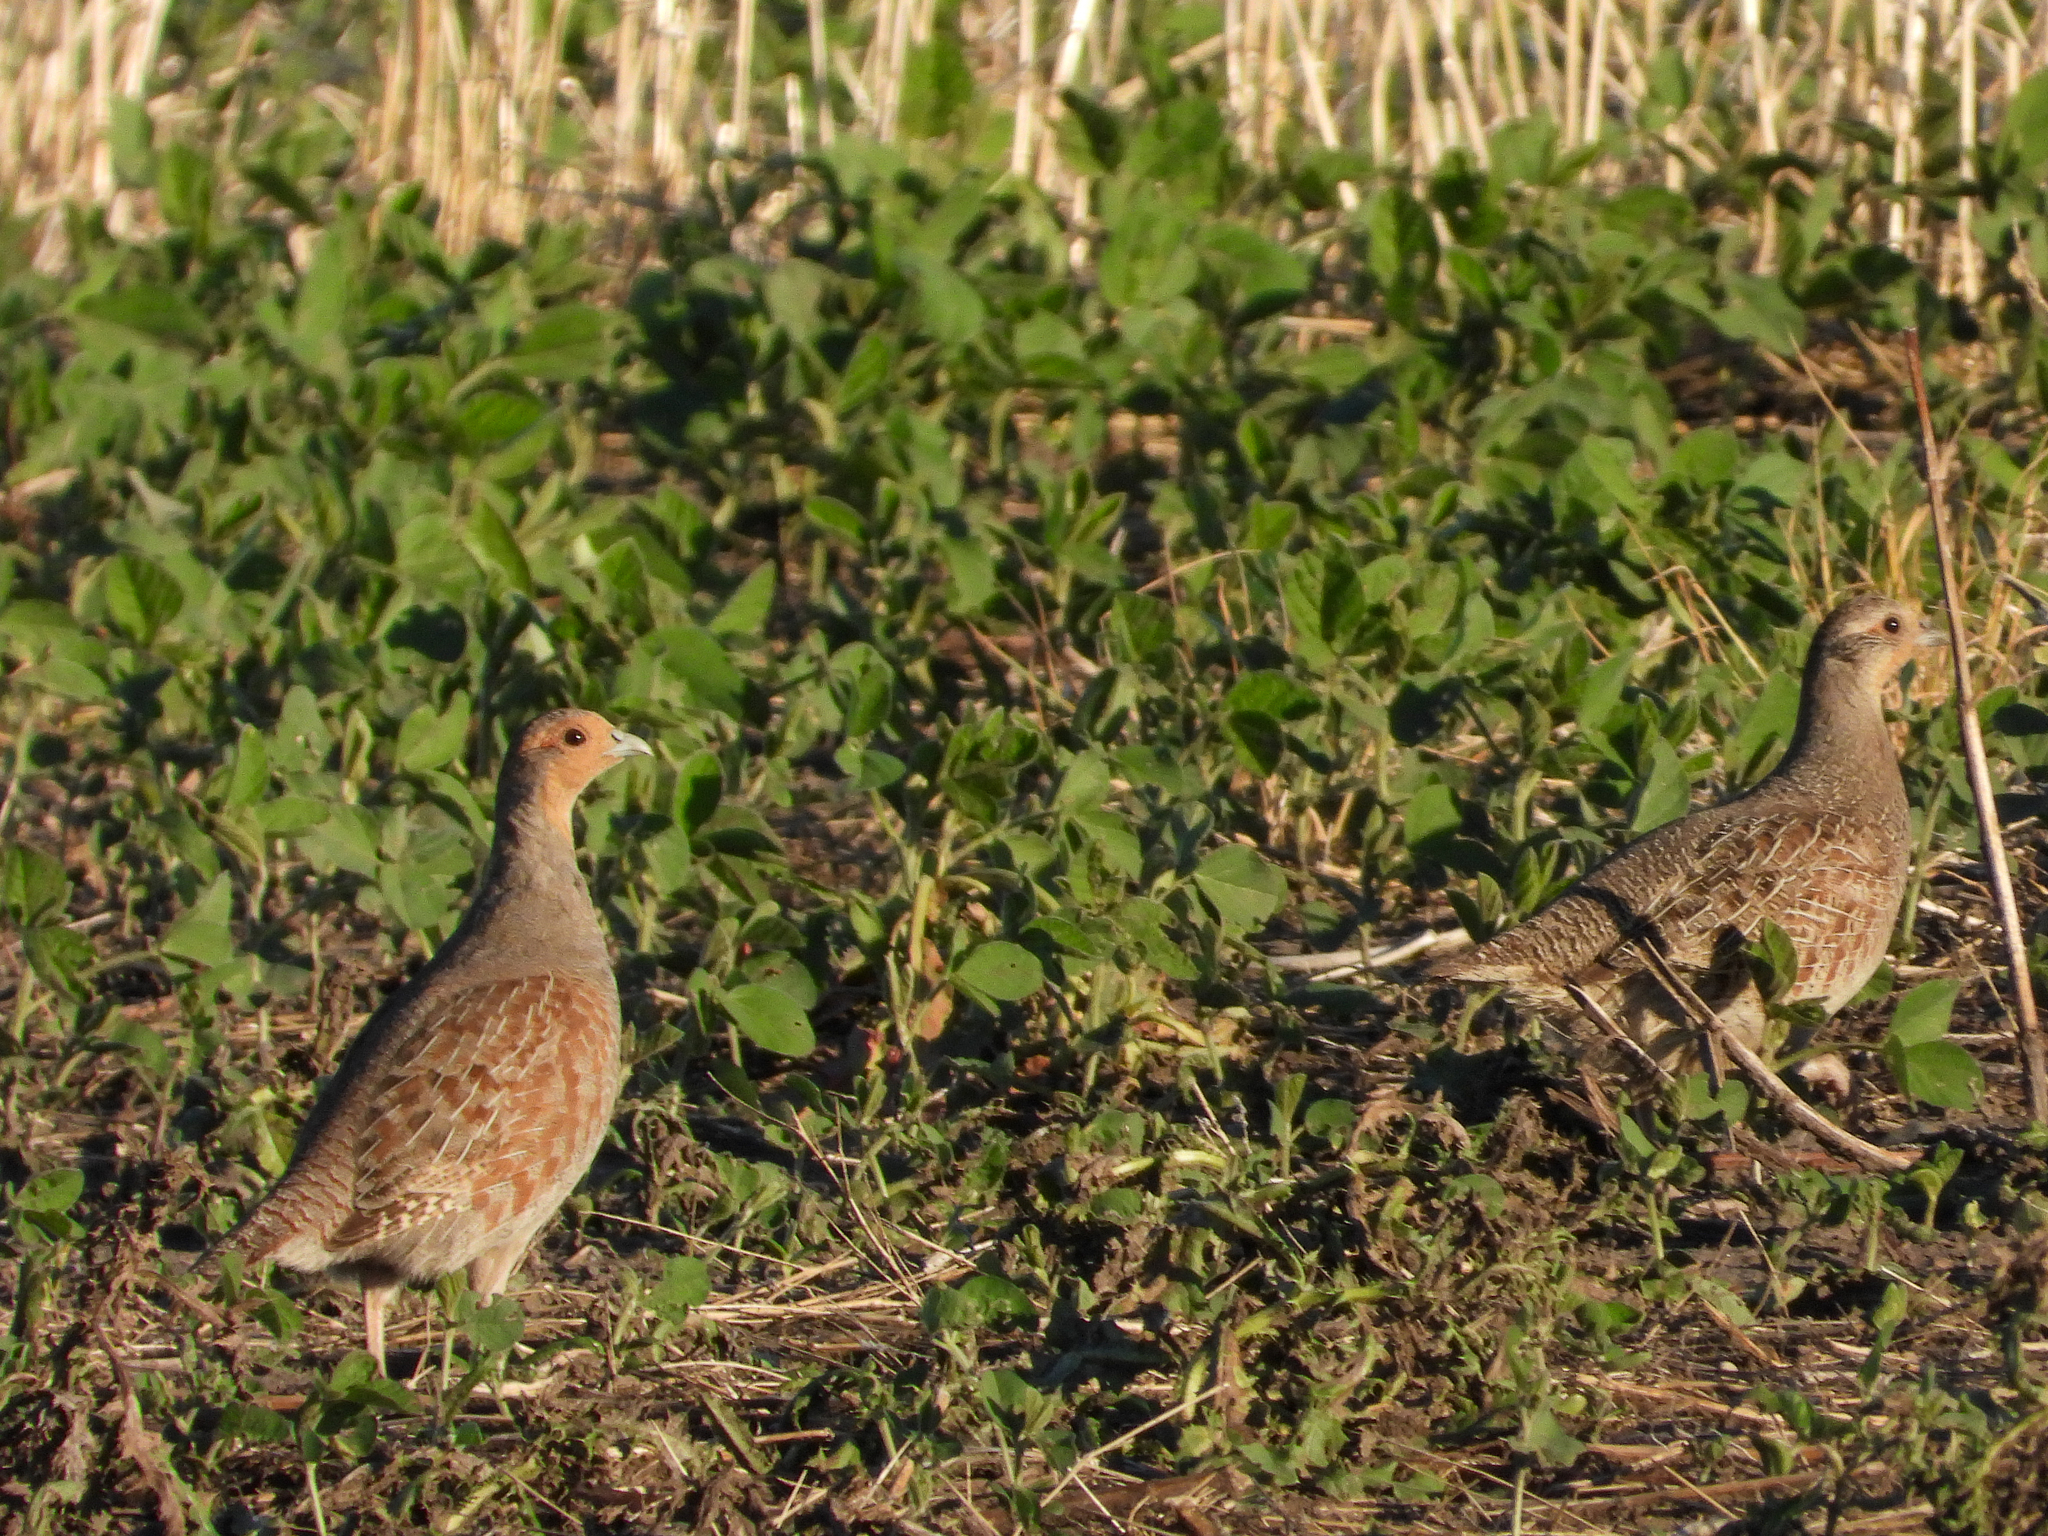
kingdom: Animalia
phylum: Chordata
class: Aves
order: Galliformes
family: Phasianidae
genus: Perdix
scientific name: Perdix perdix
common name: Grey partridge
